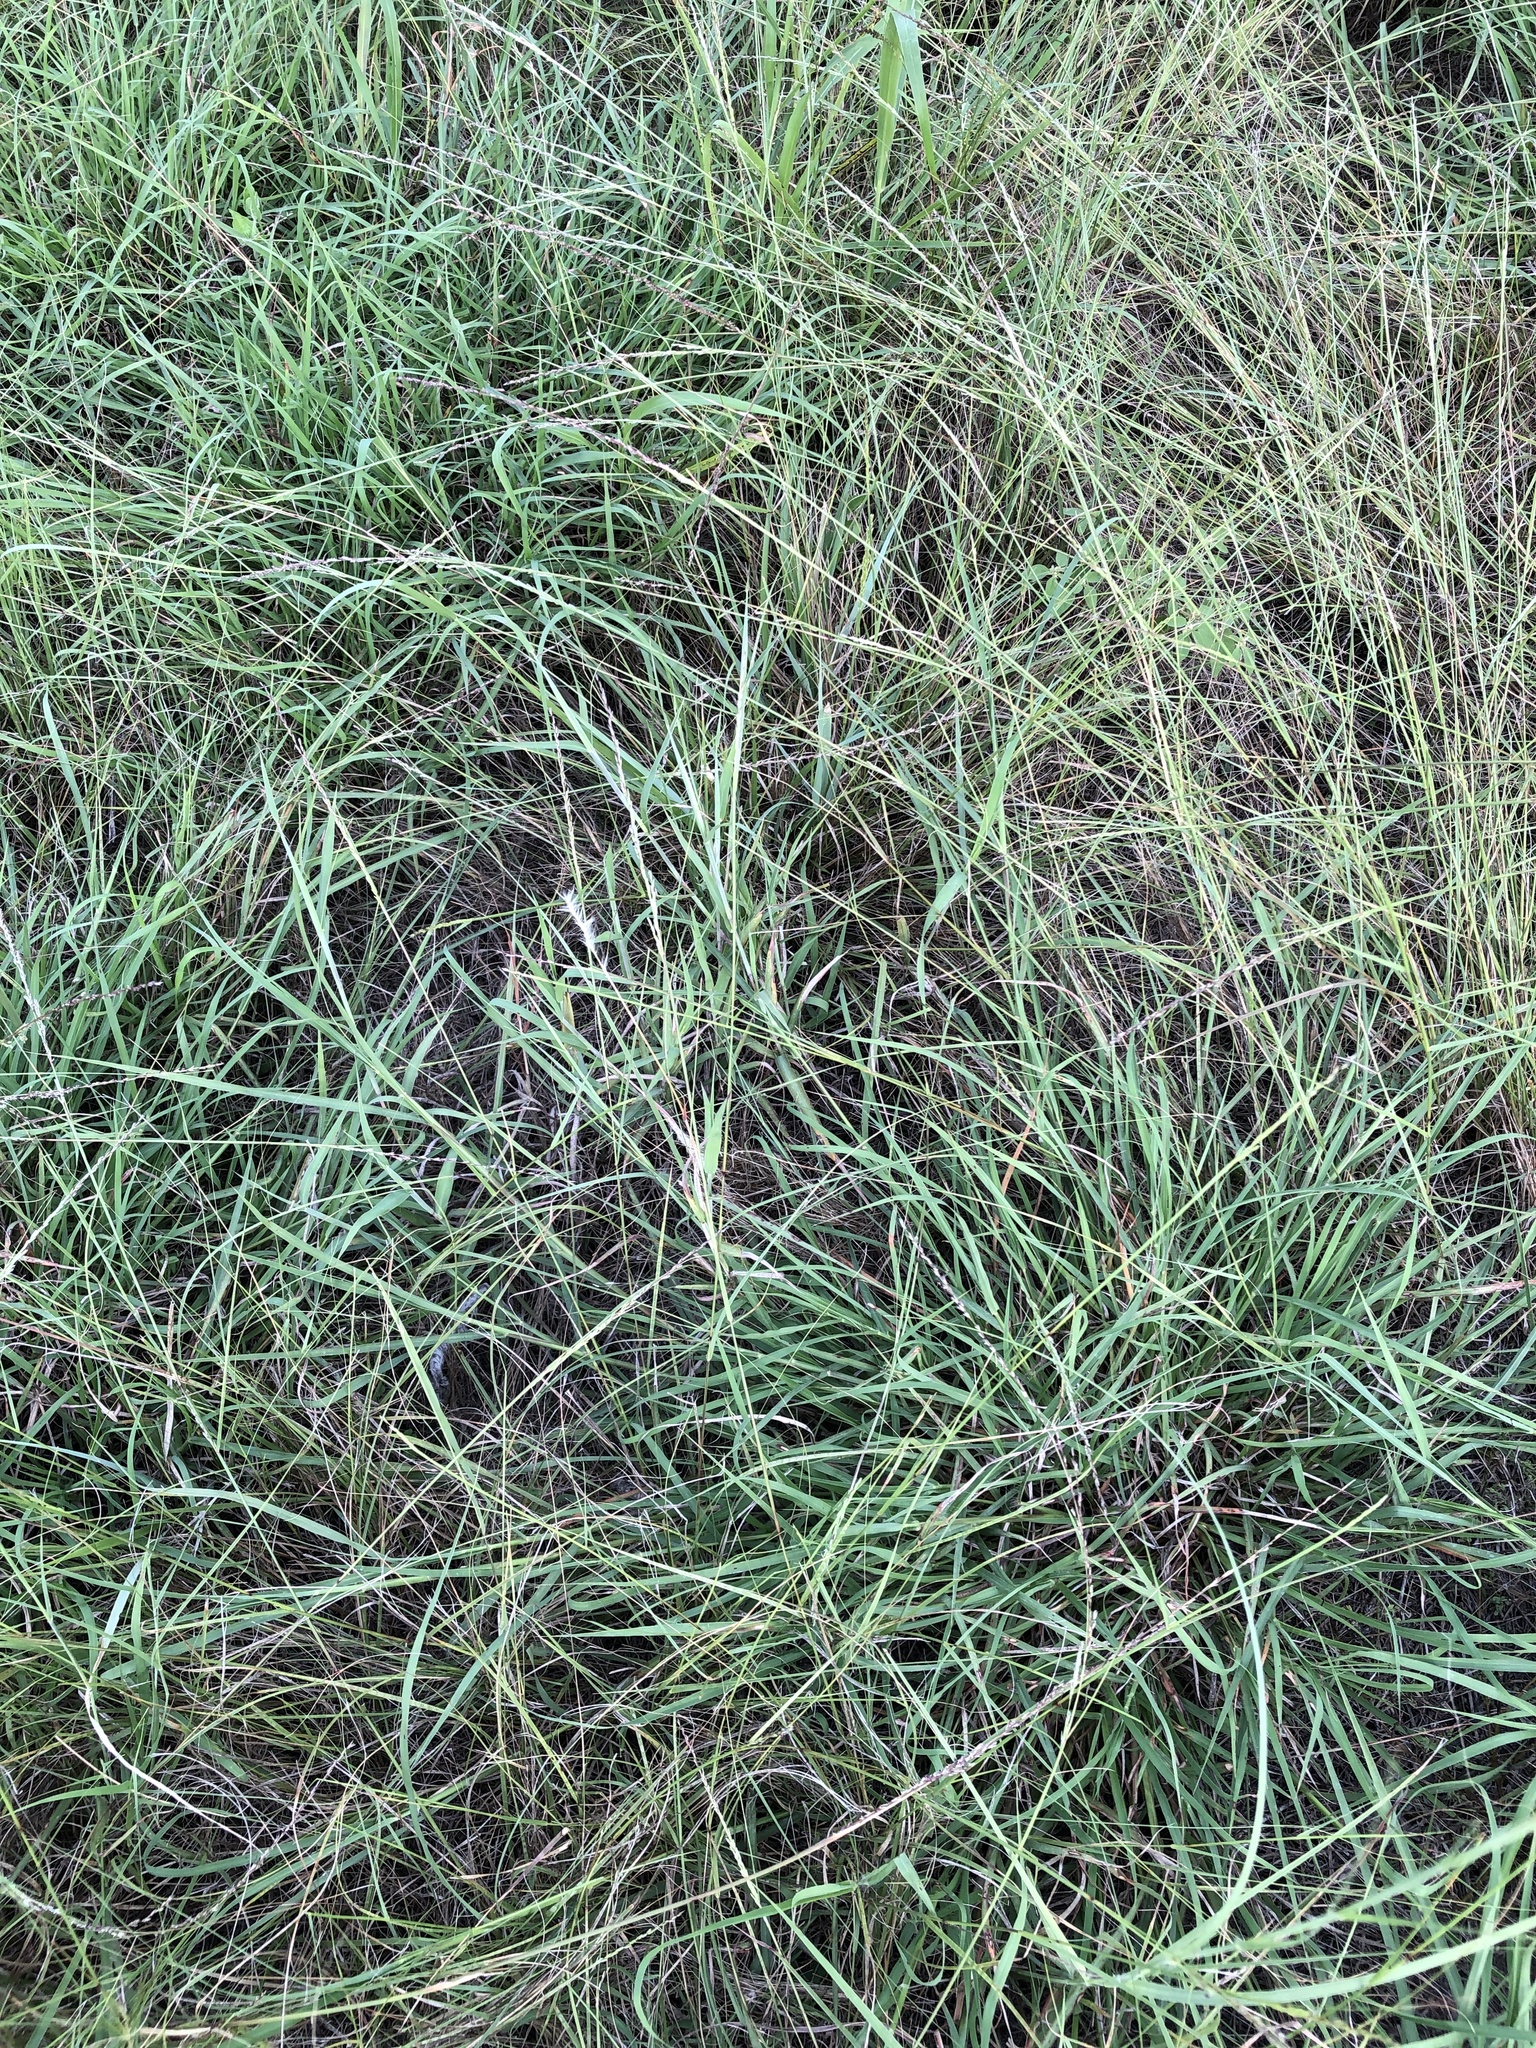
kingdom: Plantae
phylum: Tracheophyta
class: Liliopsida
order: Poales
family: Poaceae
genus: Bothriochloa
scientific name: Bothriochloa torreyana
